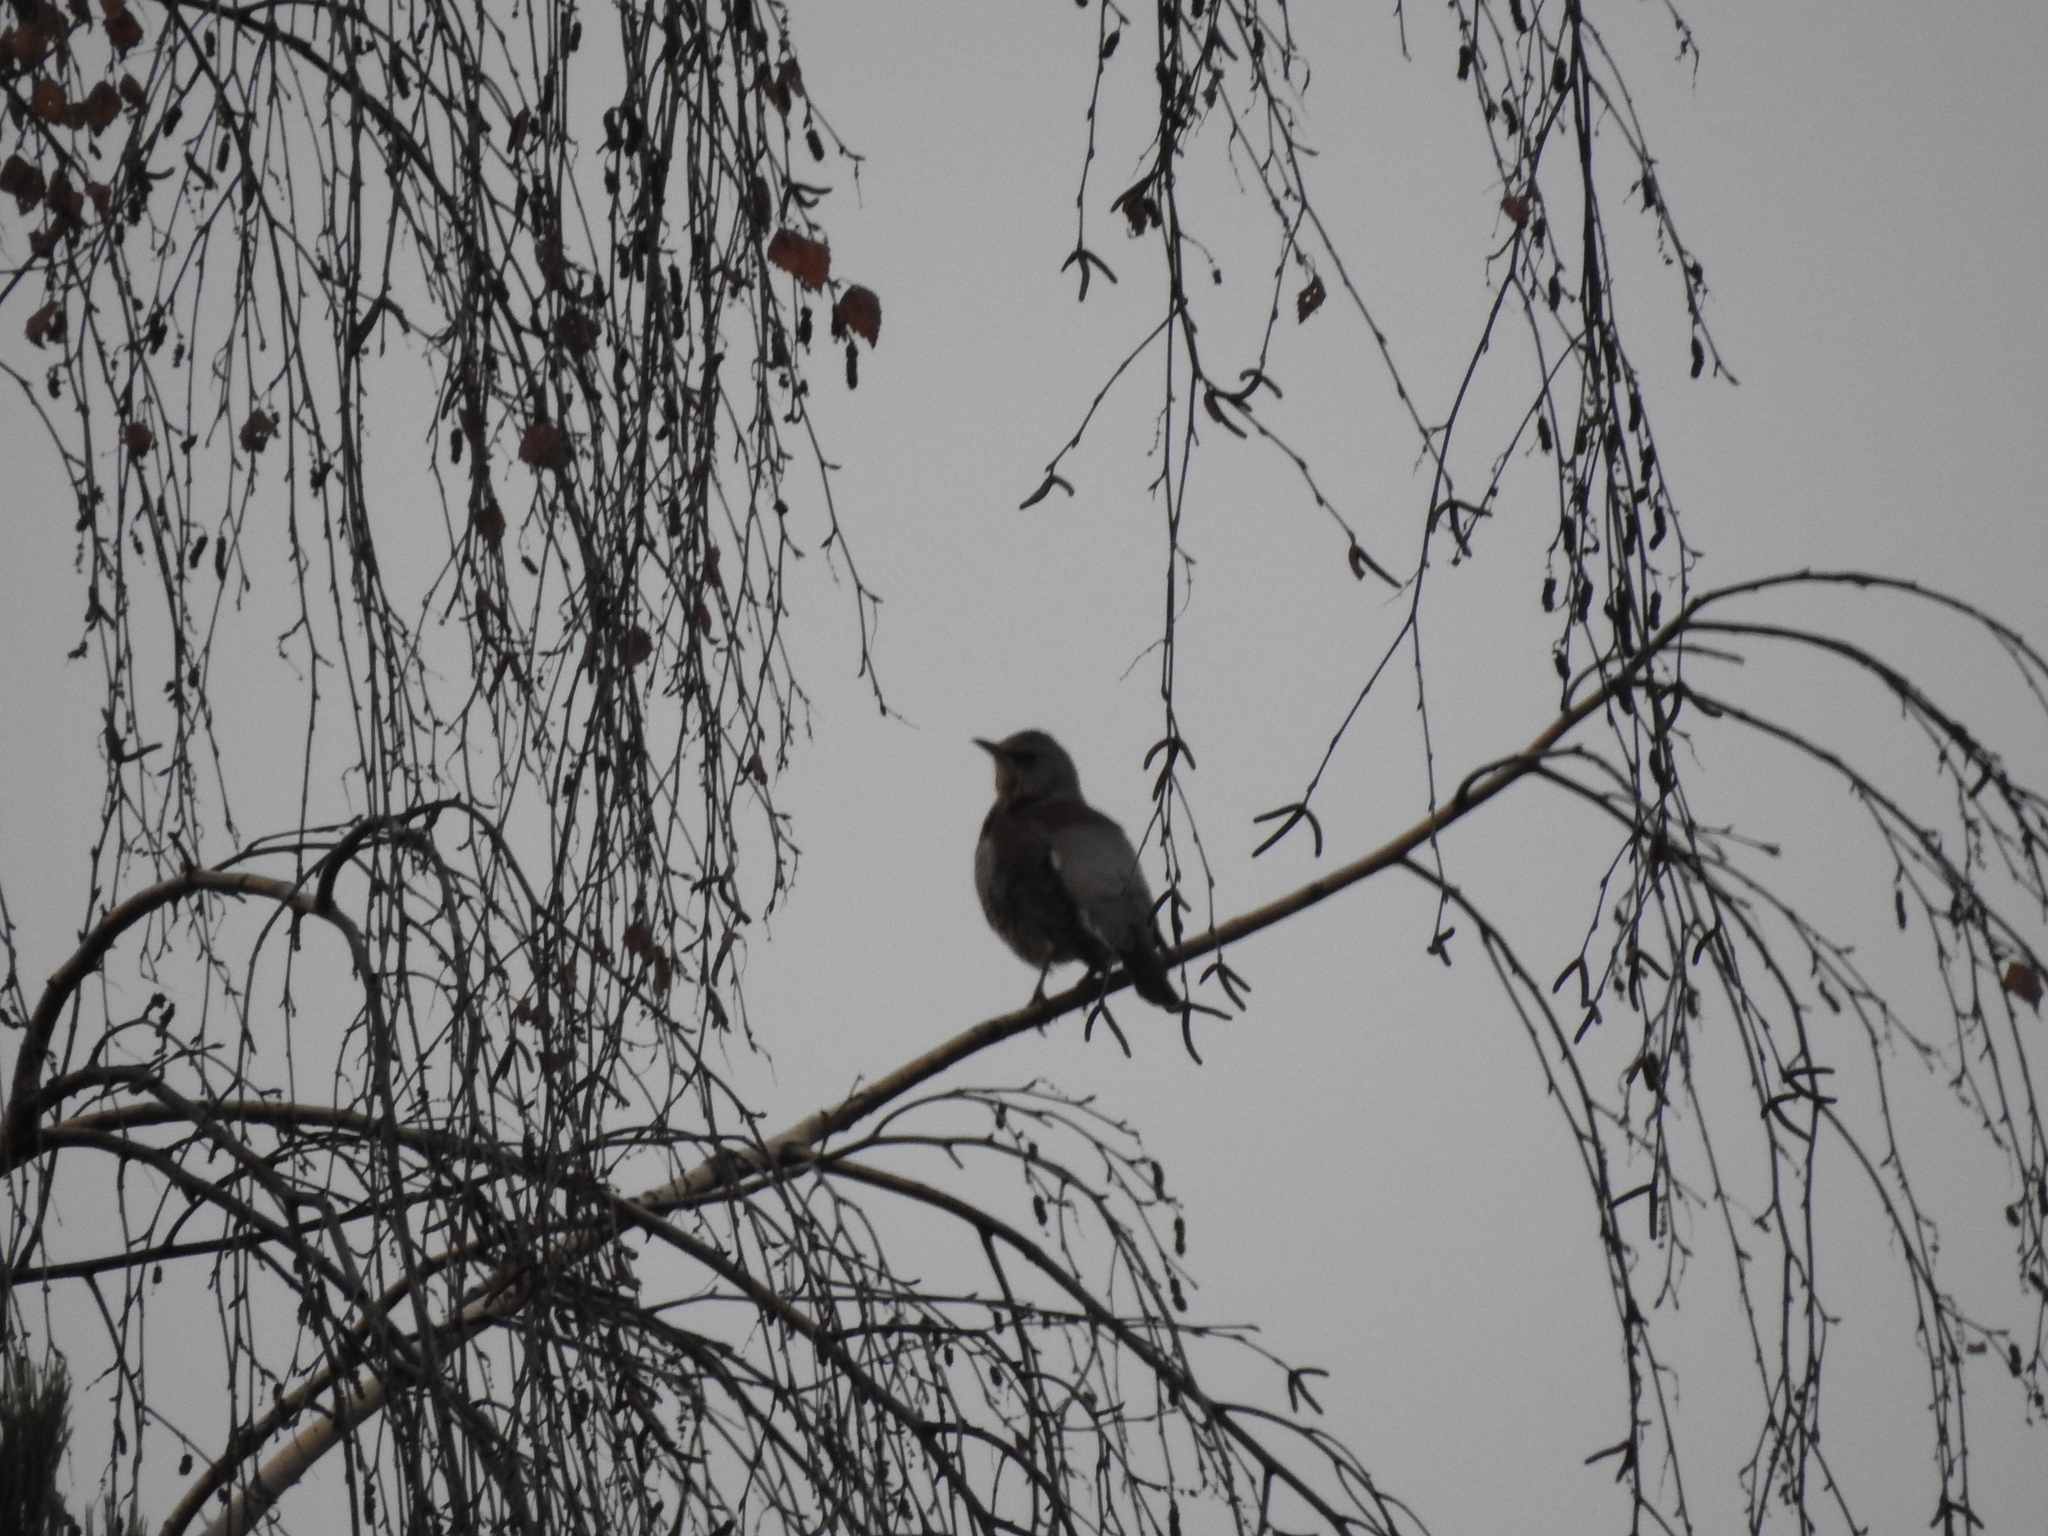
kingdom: Animalia
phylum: Chordata
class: Aves
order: Passeriformes
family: Turdidae
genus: Turdus
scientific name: Turdus pilaris
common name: Fieldfare
